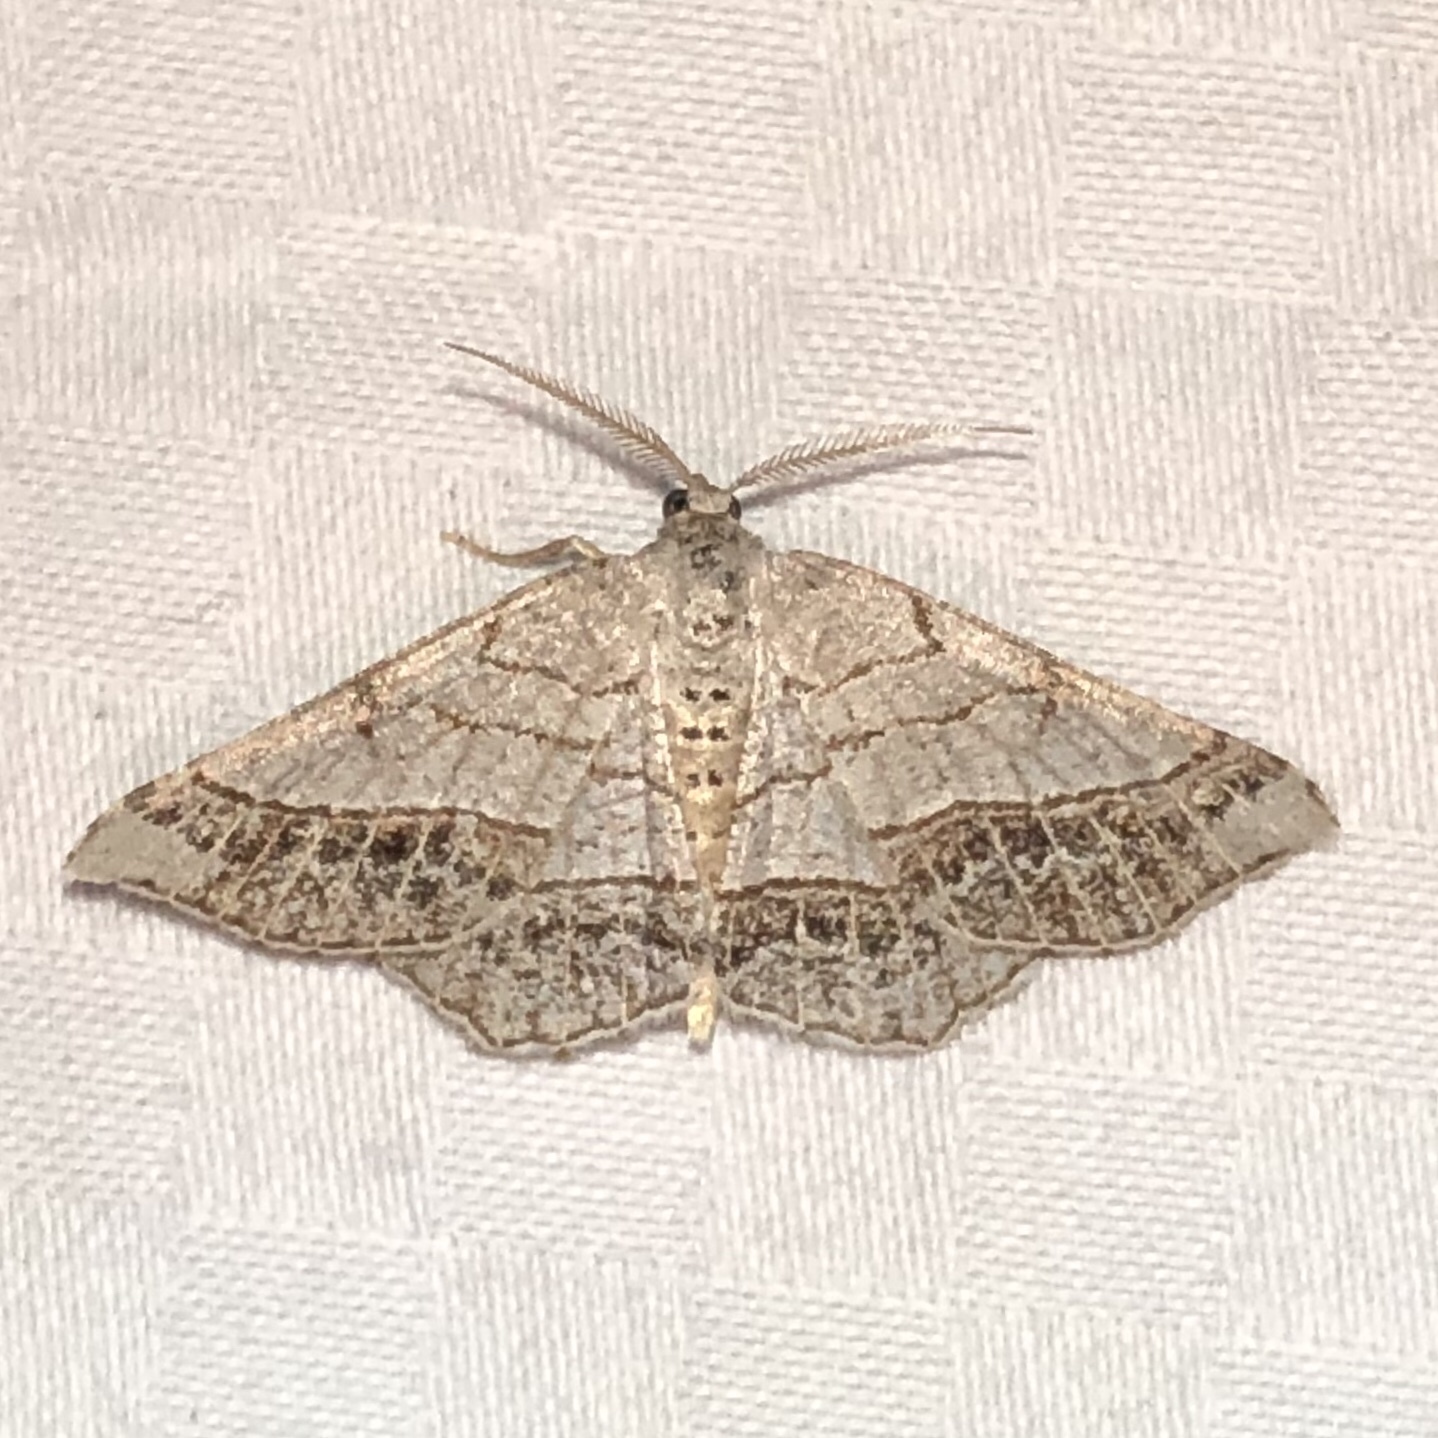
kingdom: Animalia
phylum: Arthropoda
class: Insecta
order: Lepidoptera
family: Geometridae
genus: Eumacaria
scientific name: Eumacaria madopata
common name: Brown-bordered geometer
